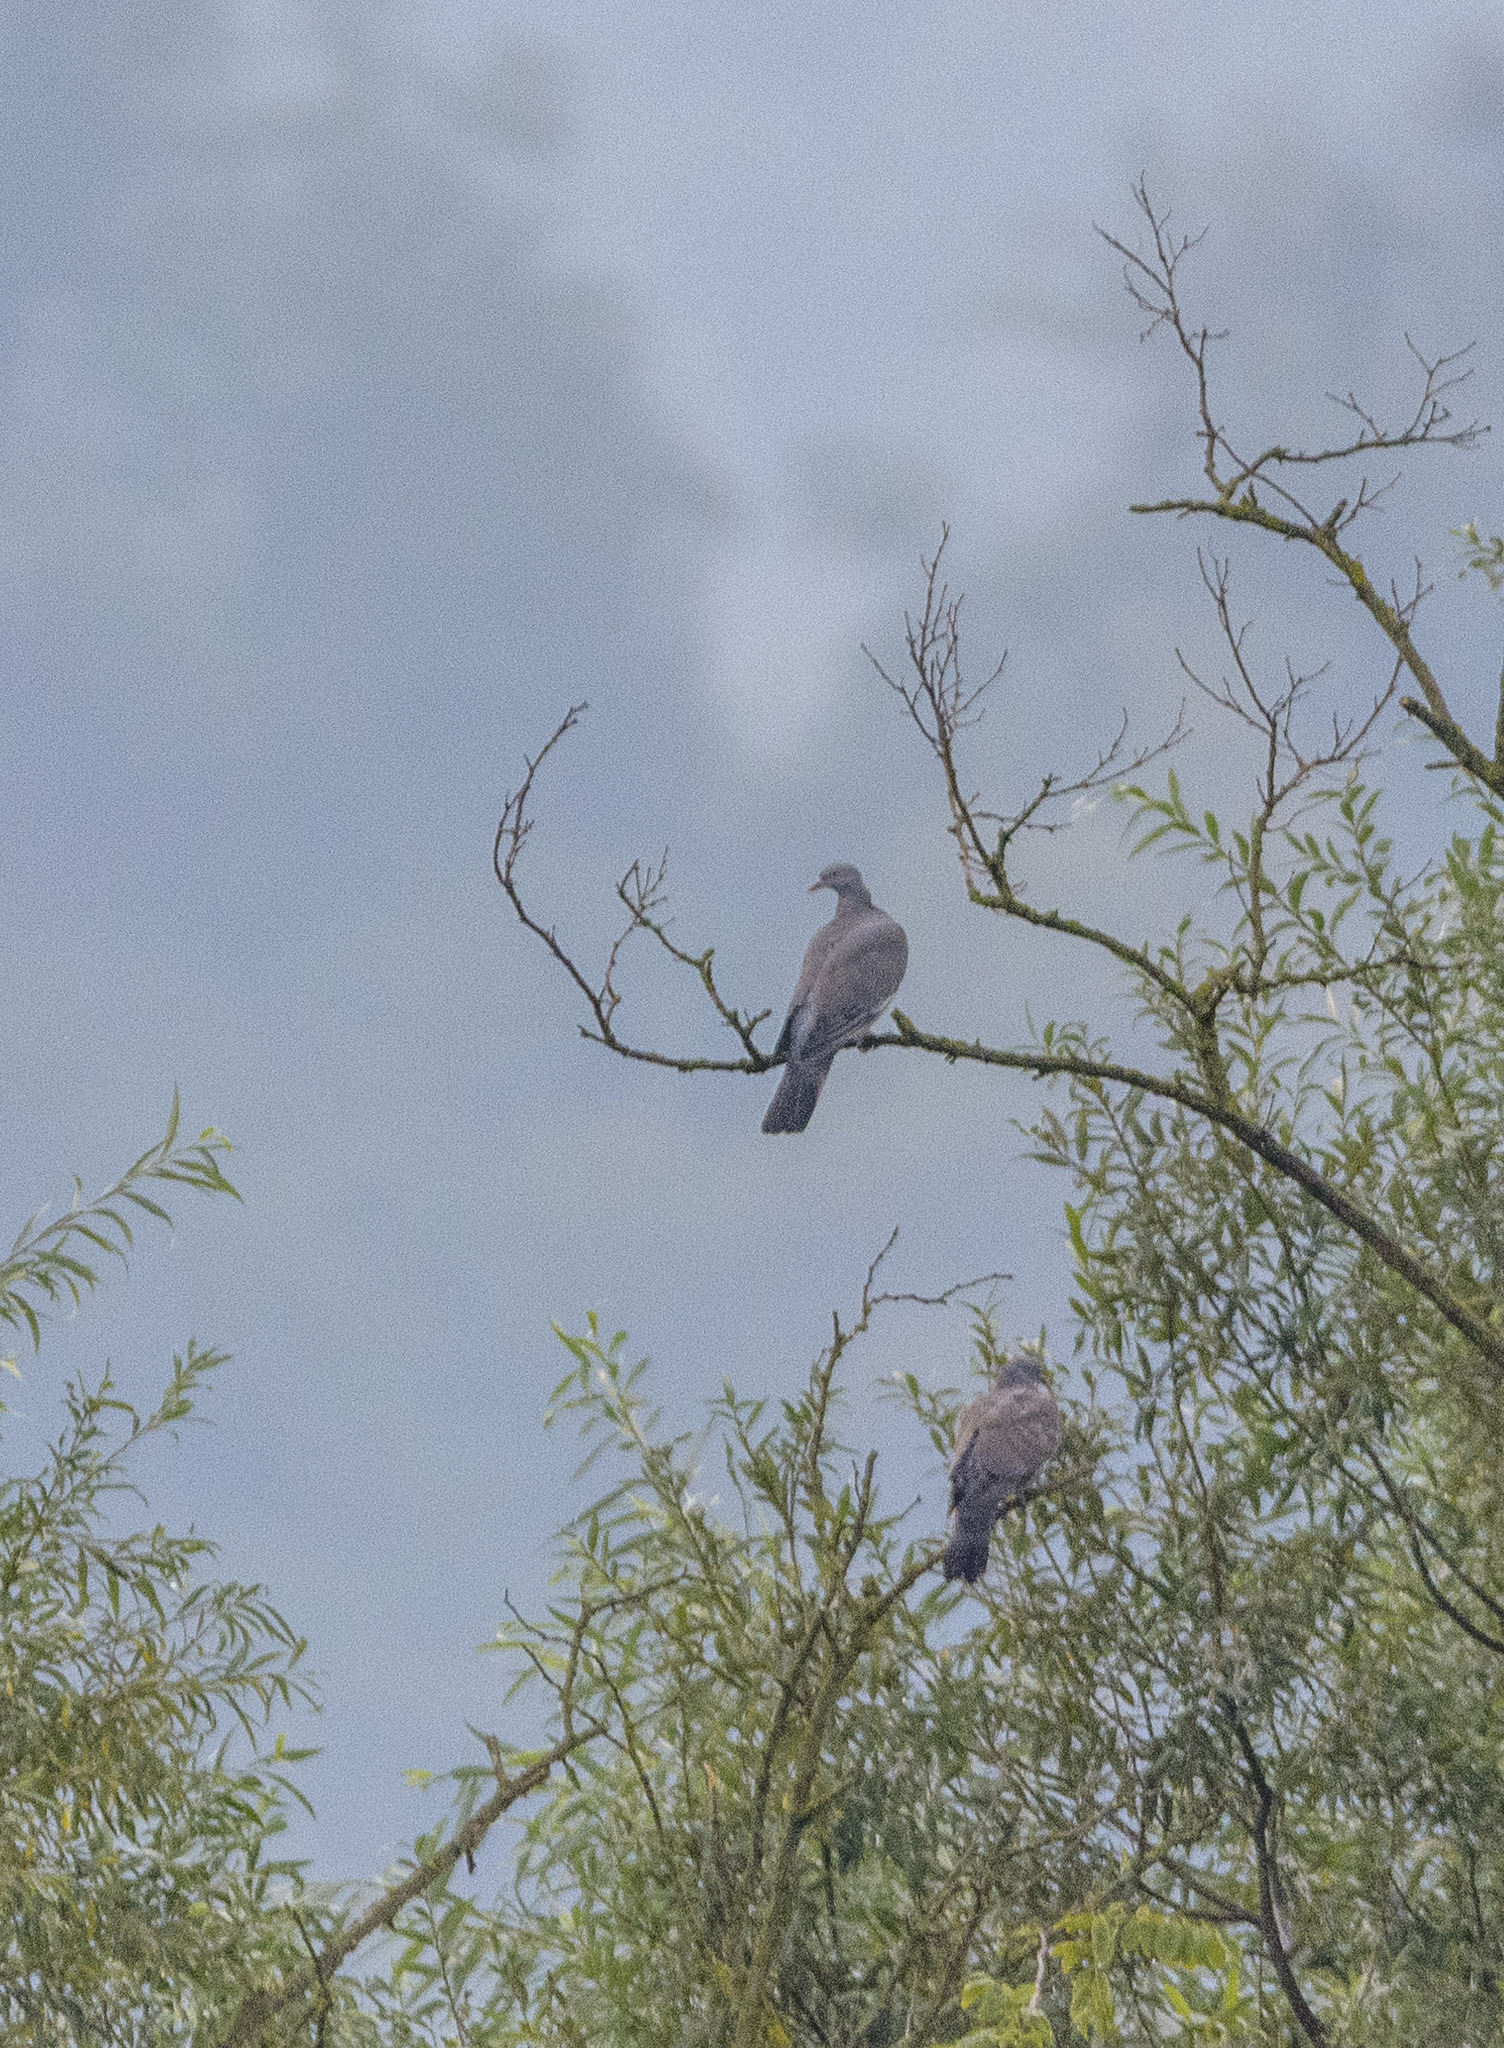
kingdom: Animalia
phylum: Chordata
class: Aves
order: Columbiformes
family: Columbidae
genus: Columba
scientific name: Columba palumbus
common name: Common wood pigeon
